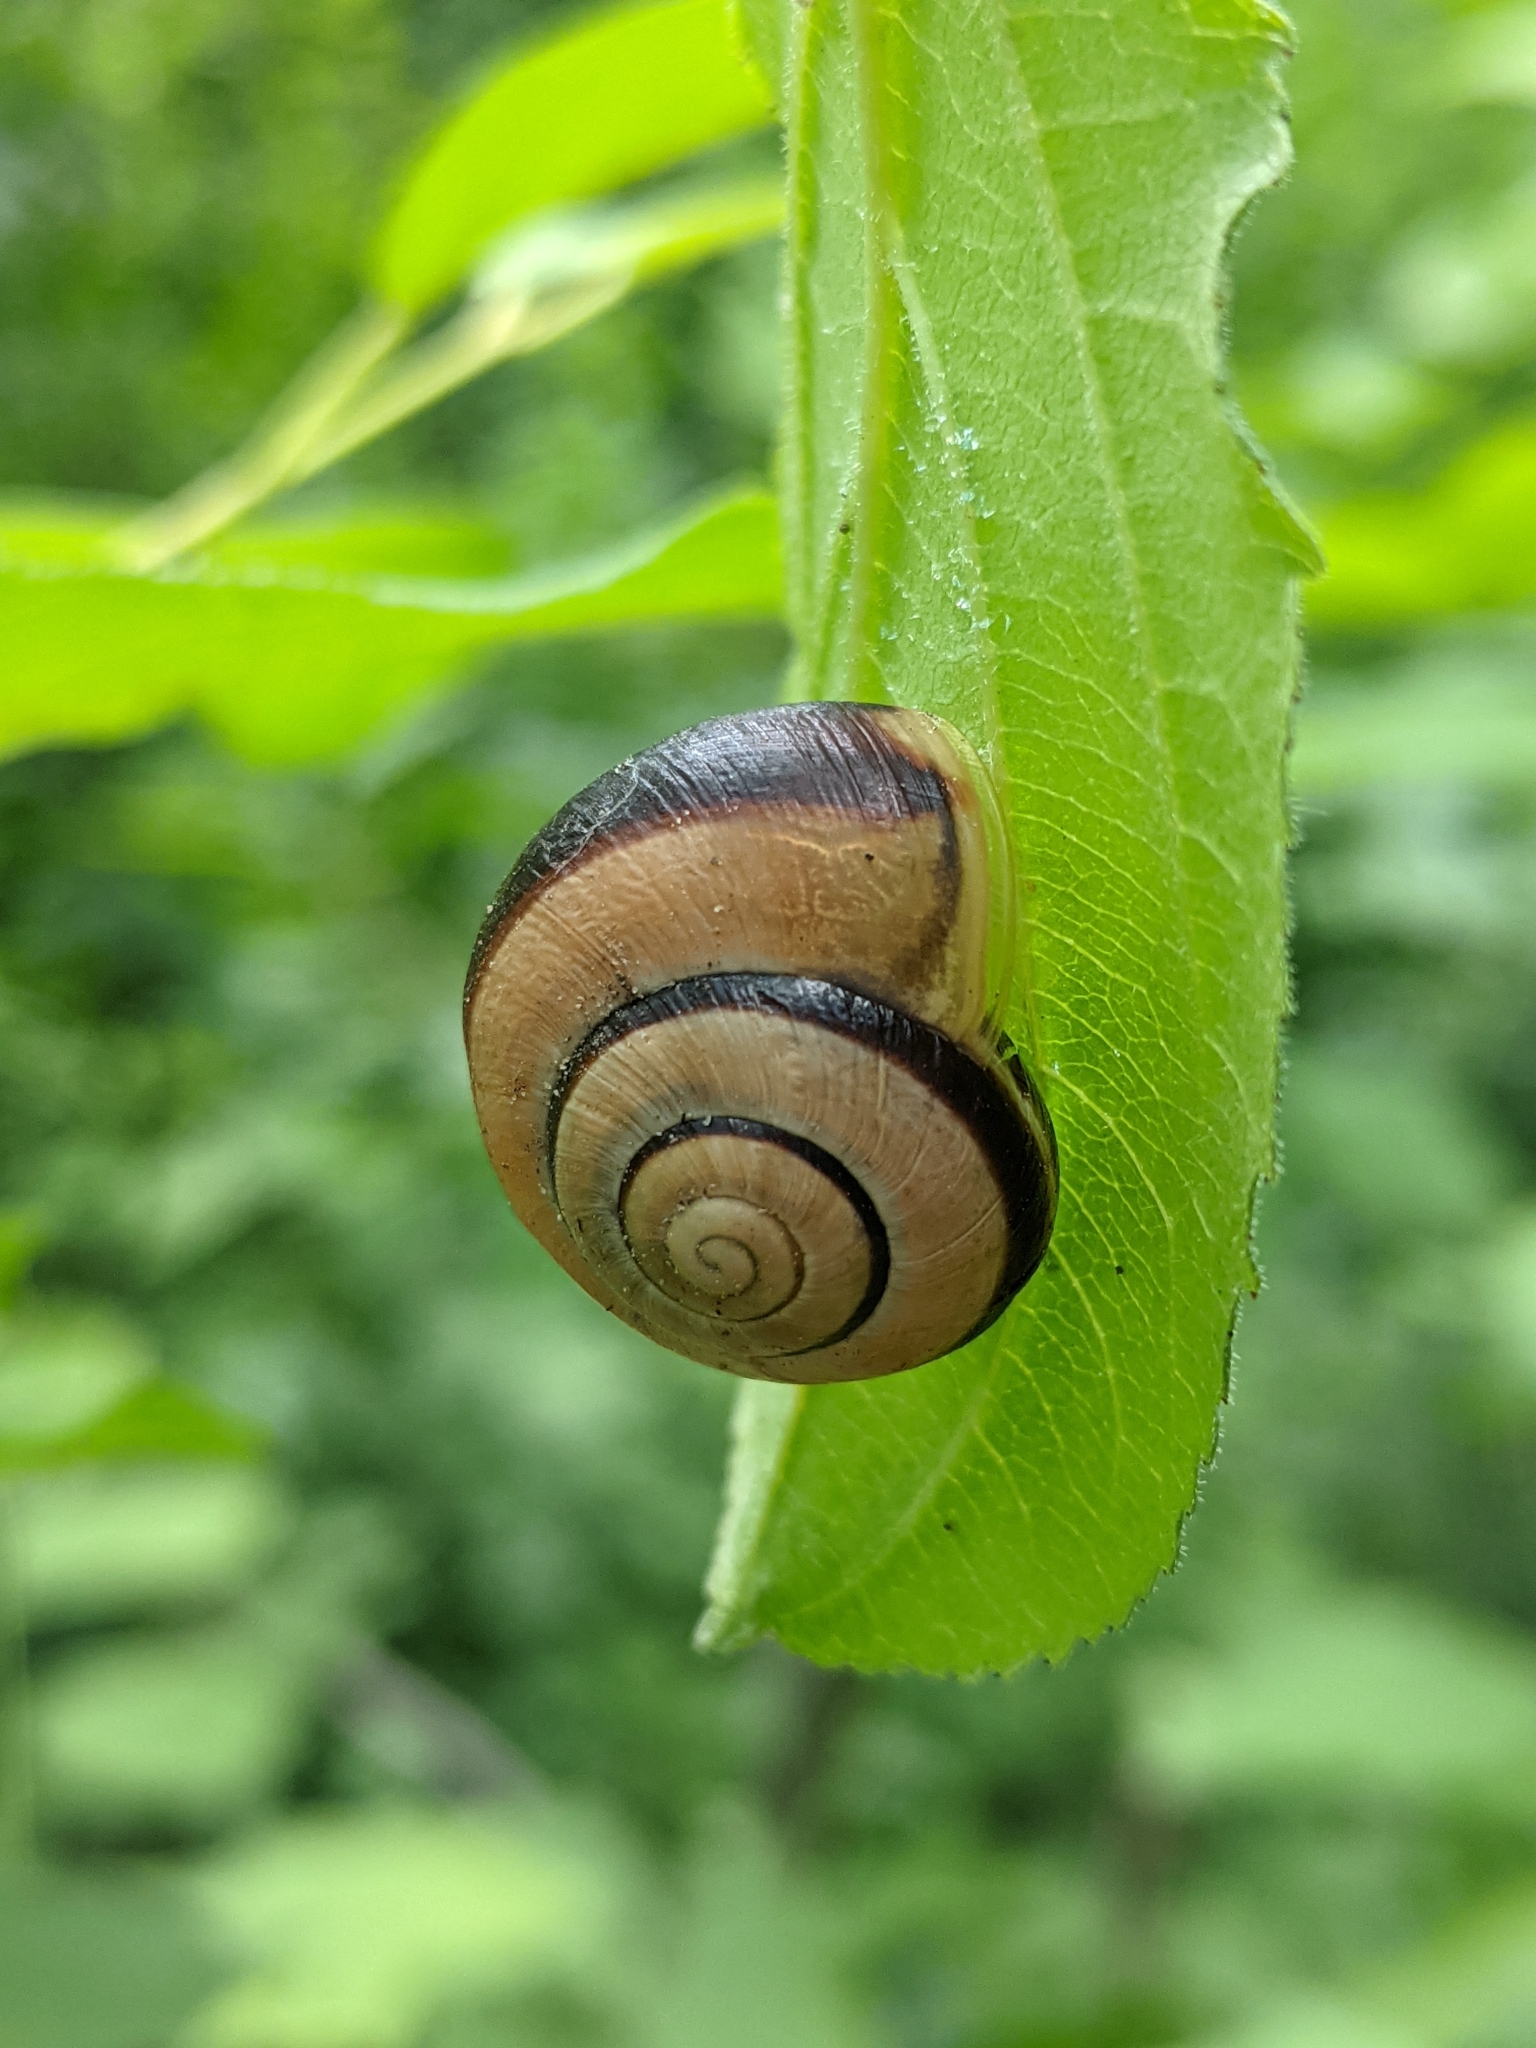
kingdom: Animalia
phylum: Mollusca
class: Gastropoda
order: Stylommatophora
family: Helicidae
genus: Cepaea
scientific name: Cepaea nemoralis
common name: Grovesnail
